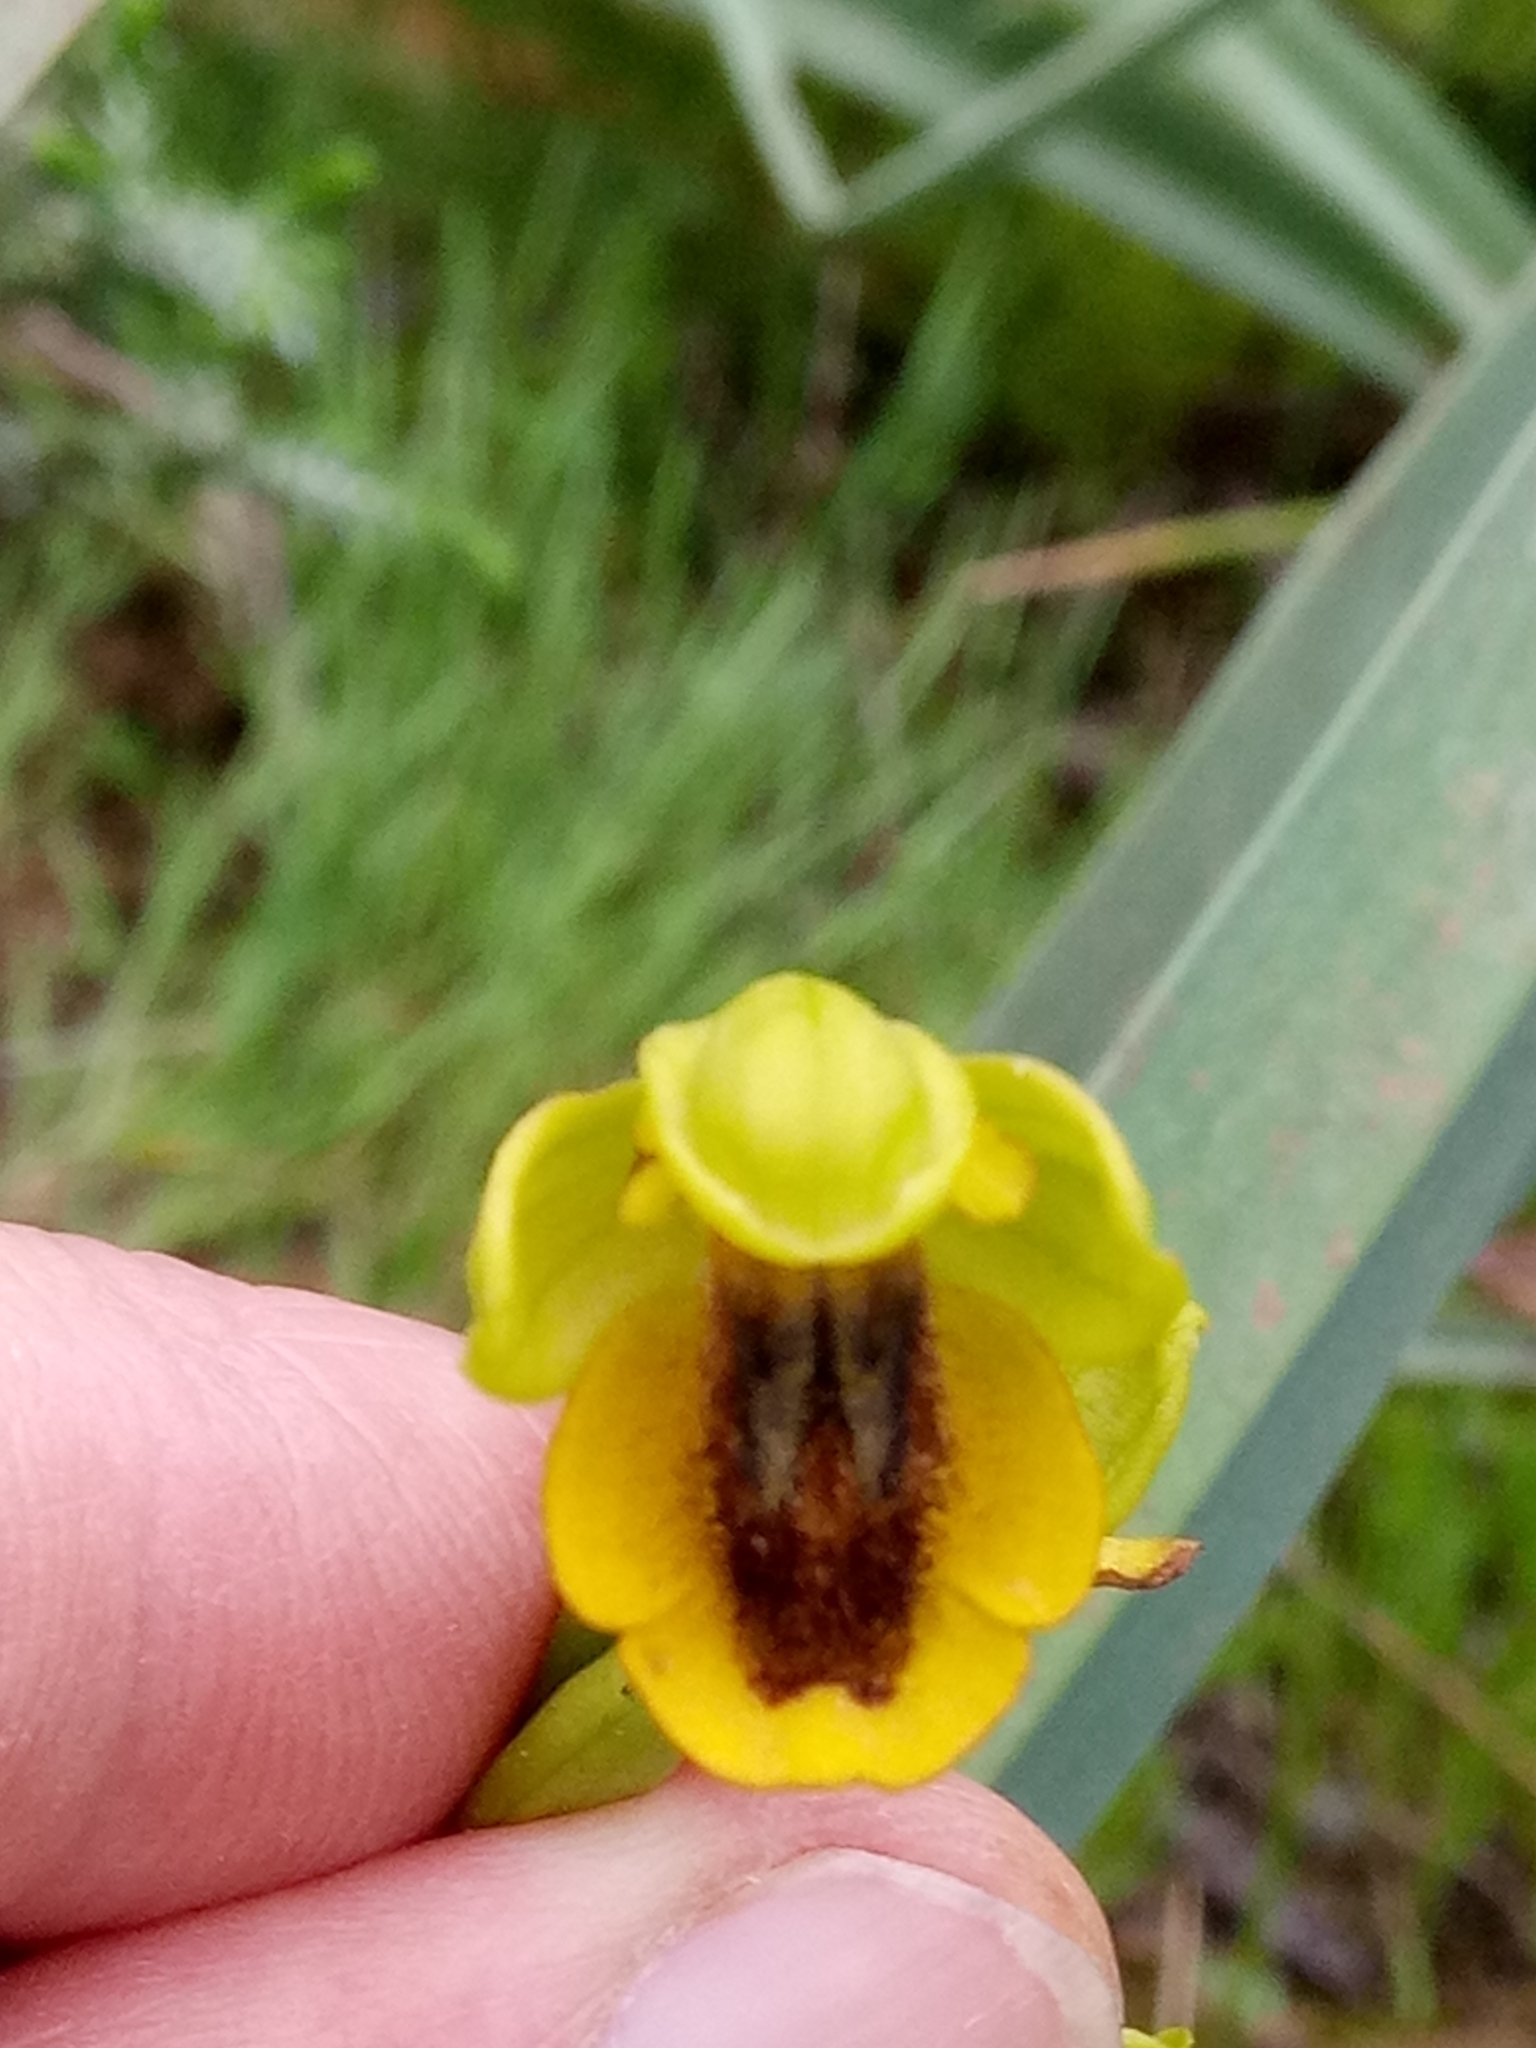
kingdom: Plantae
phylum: Tracheophyta
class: Liliopsida
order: Asparagales
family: Orchidaceae
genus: Ophrys
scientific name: Ophrys lutea
